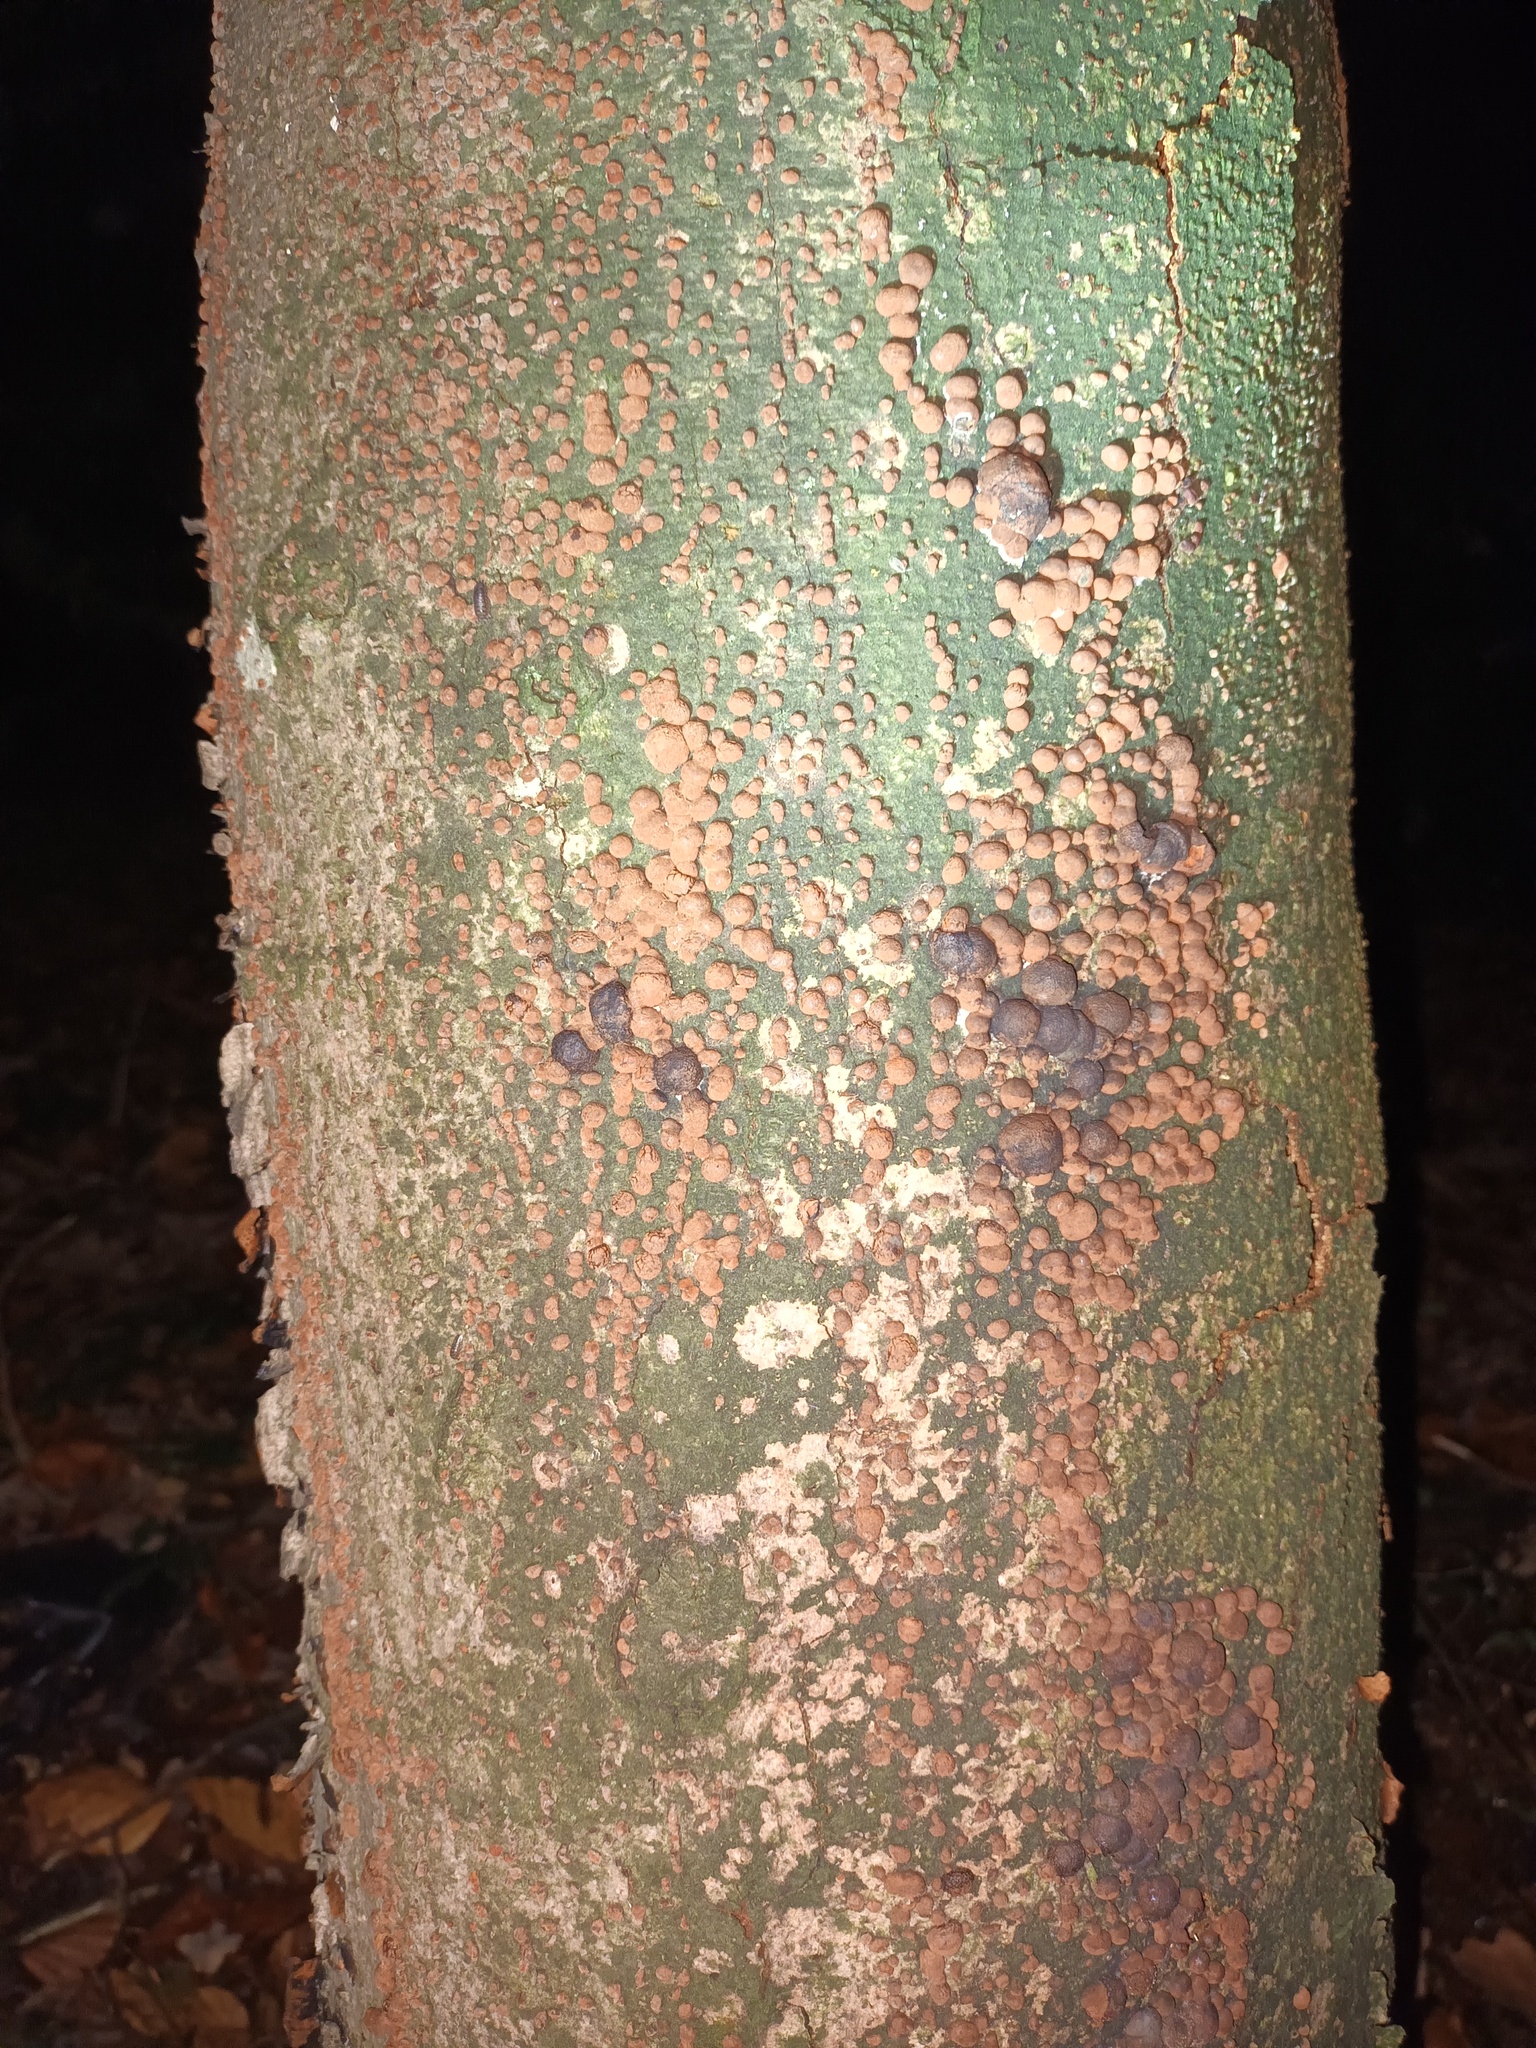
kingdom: Fungi
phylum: Ascomycota
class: Sordariomycetes
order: Xylariales
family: Hypoxylaceae
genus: Hypoxylon
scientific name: Hypoxylon fragiforme
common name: Beech woodwart
